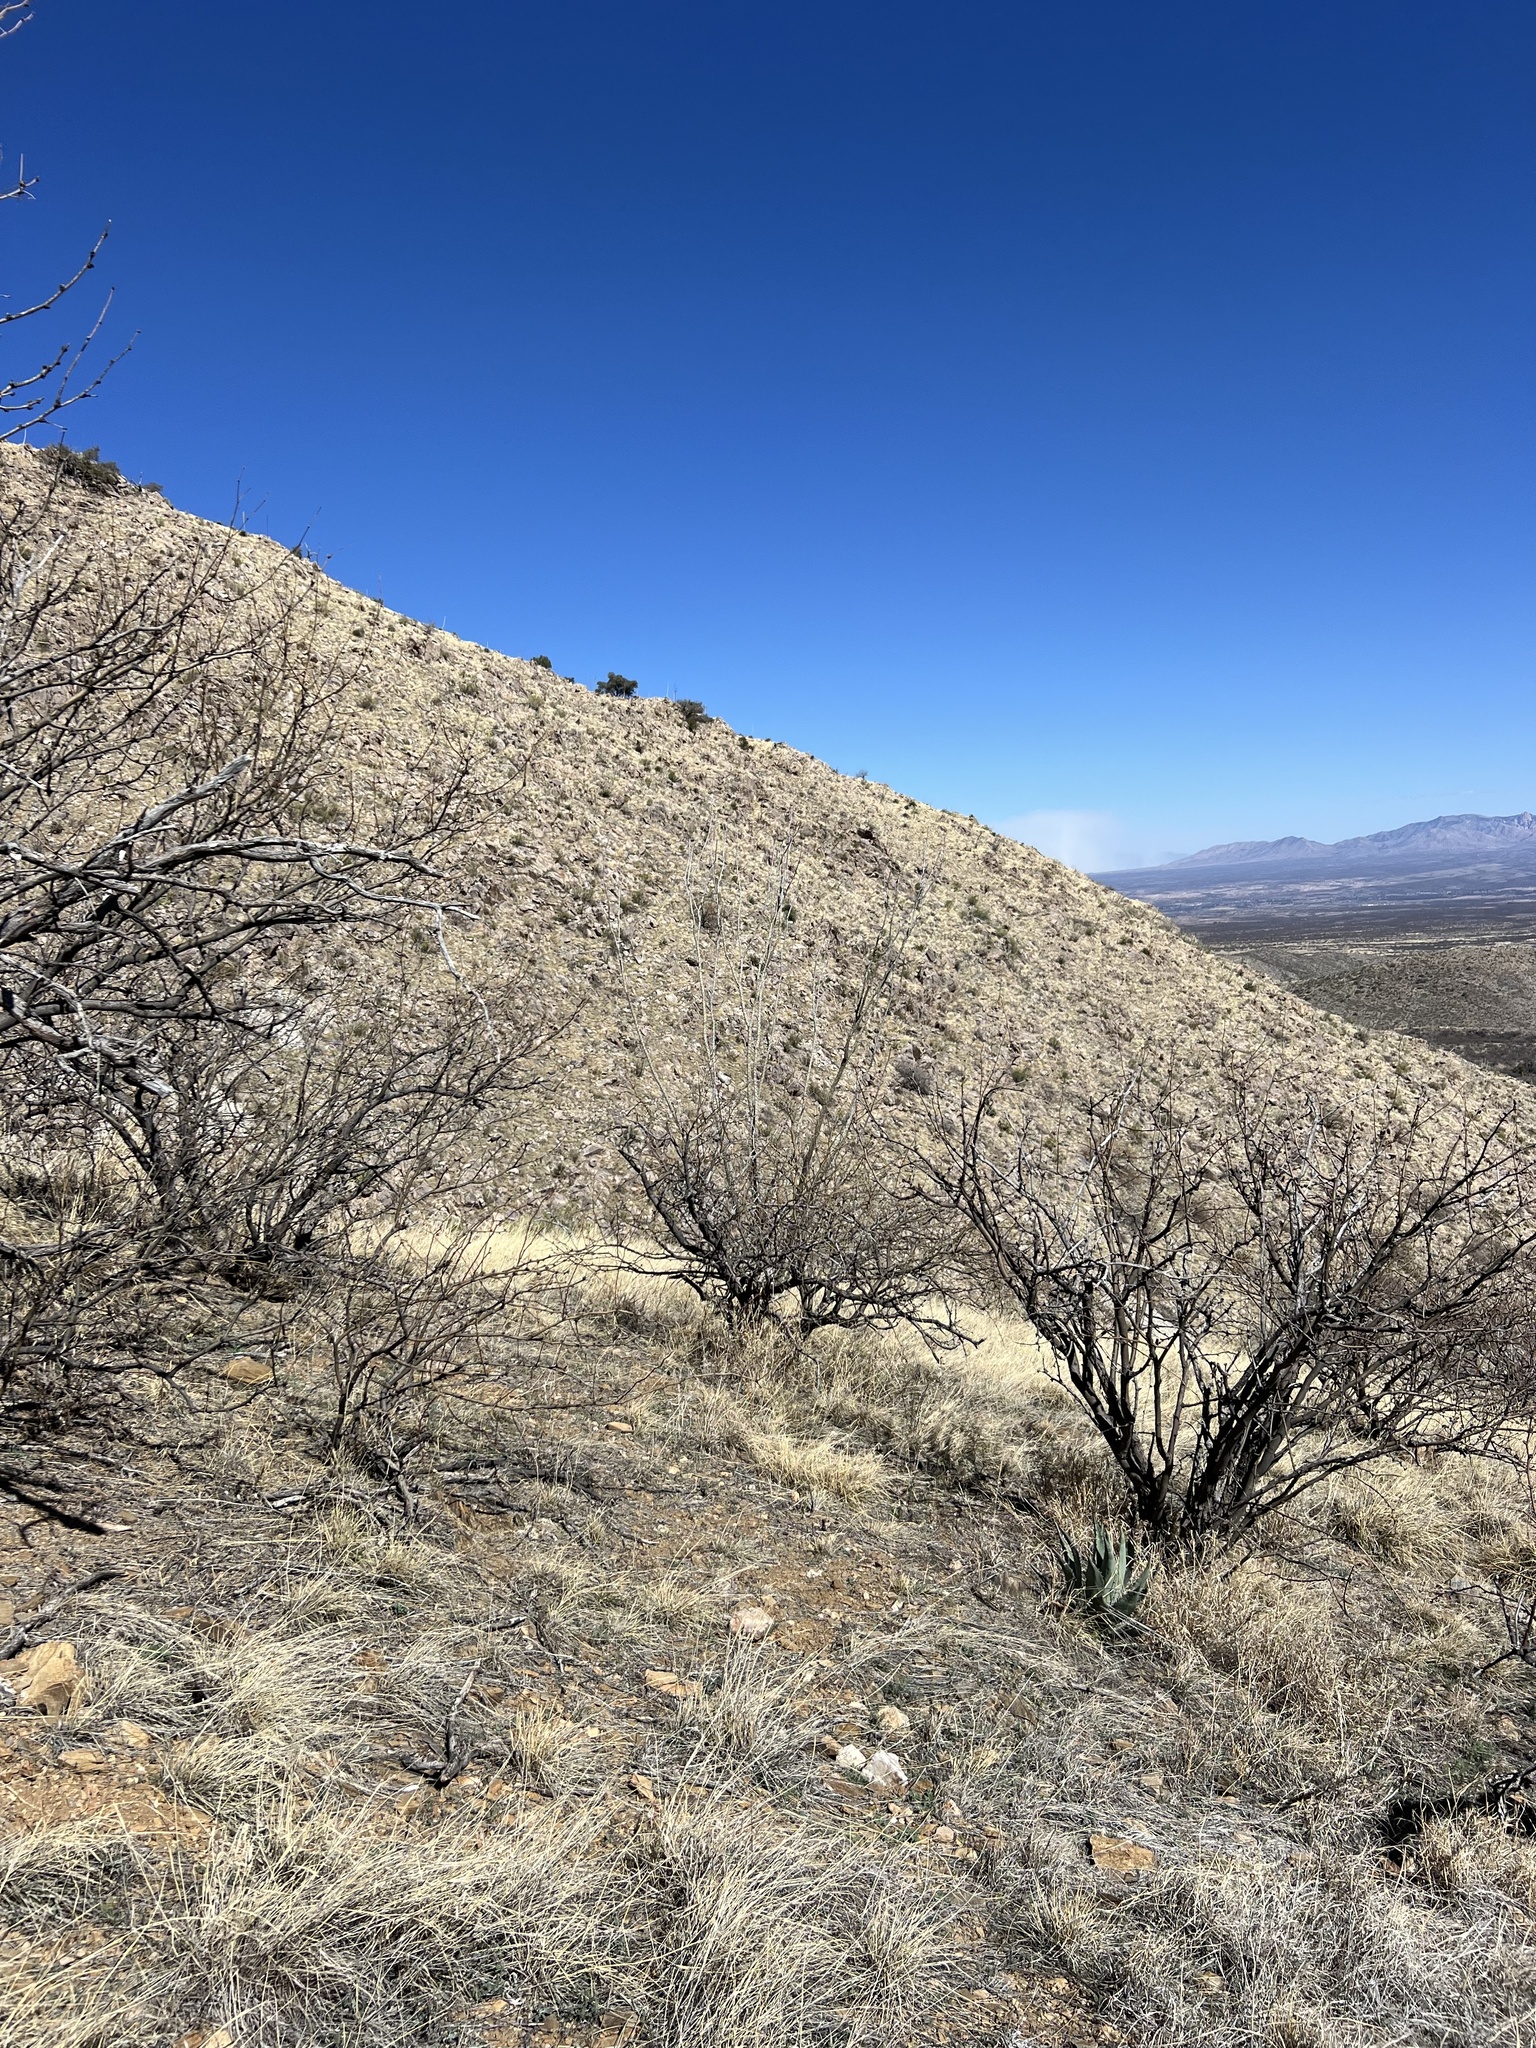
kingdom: Plantae
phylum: Tracheophyta
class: Magnoliopsida
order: Ericales
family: Fouquieriaceae
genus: Fouquieria
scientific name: Fouquieria splendens
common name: Vine-cactus
